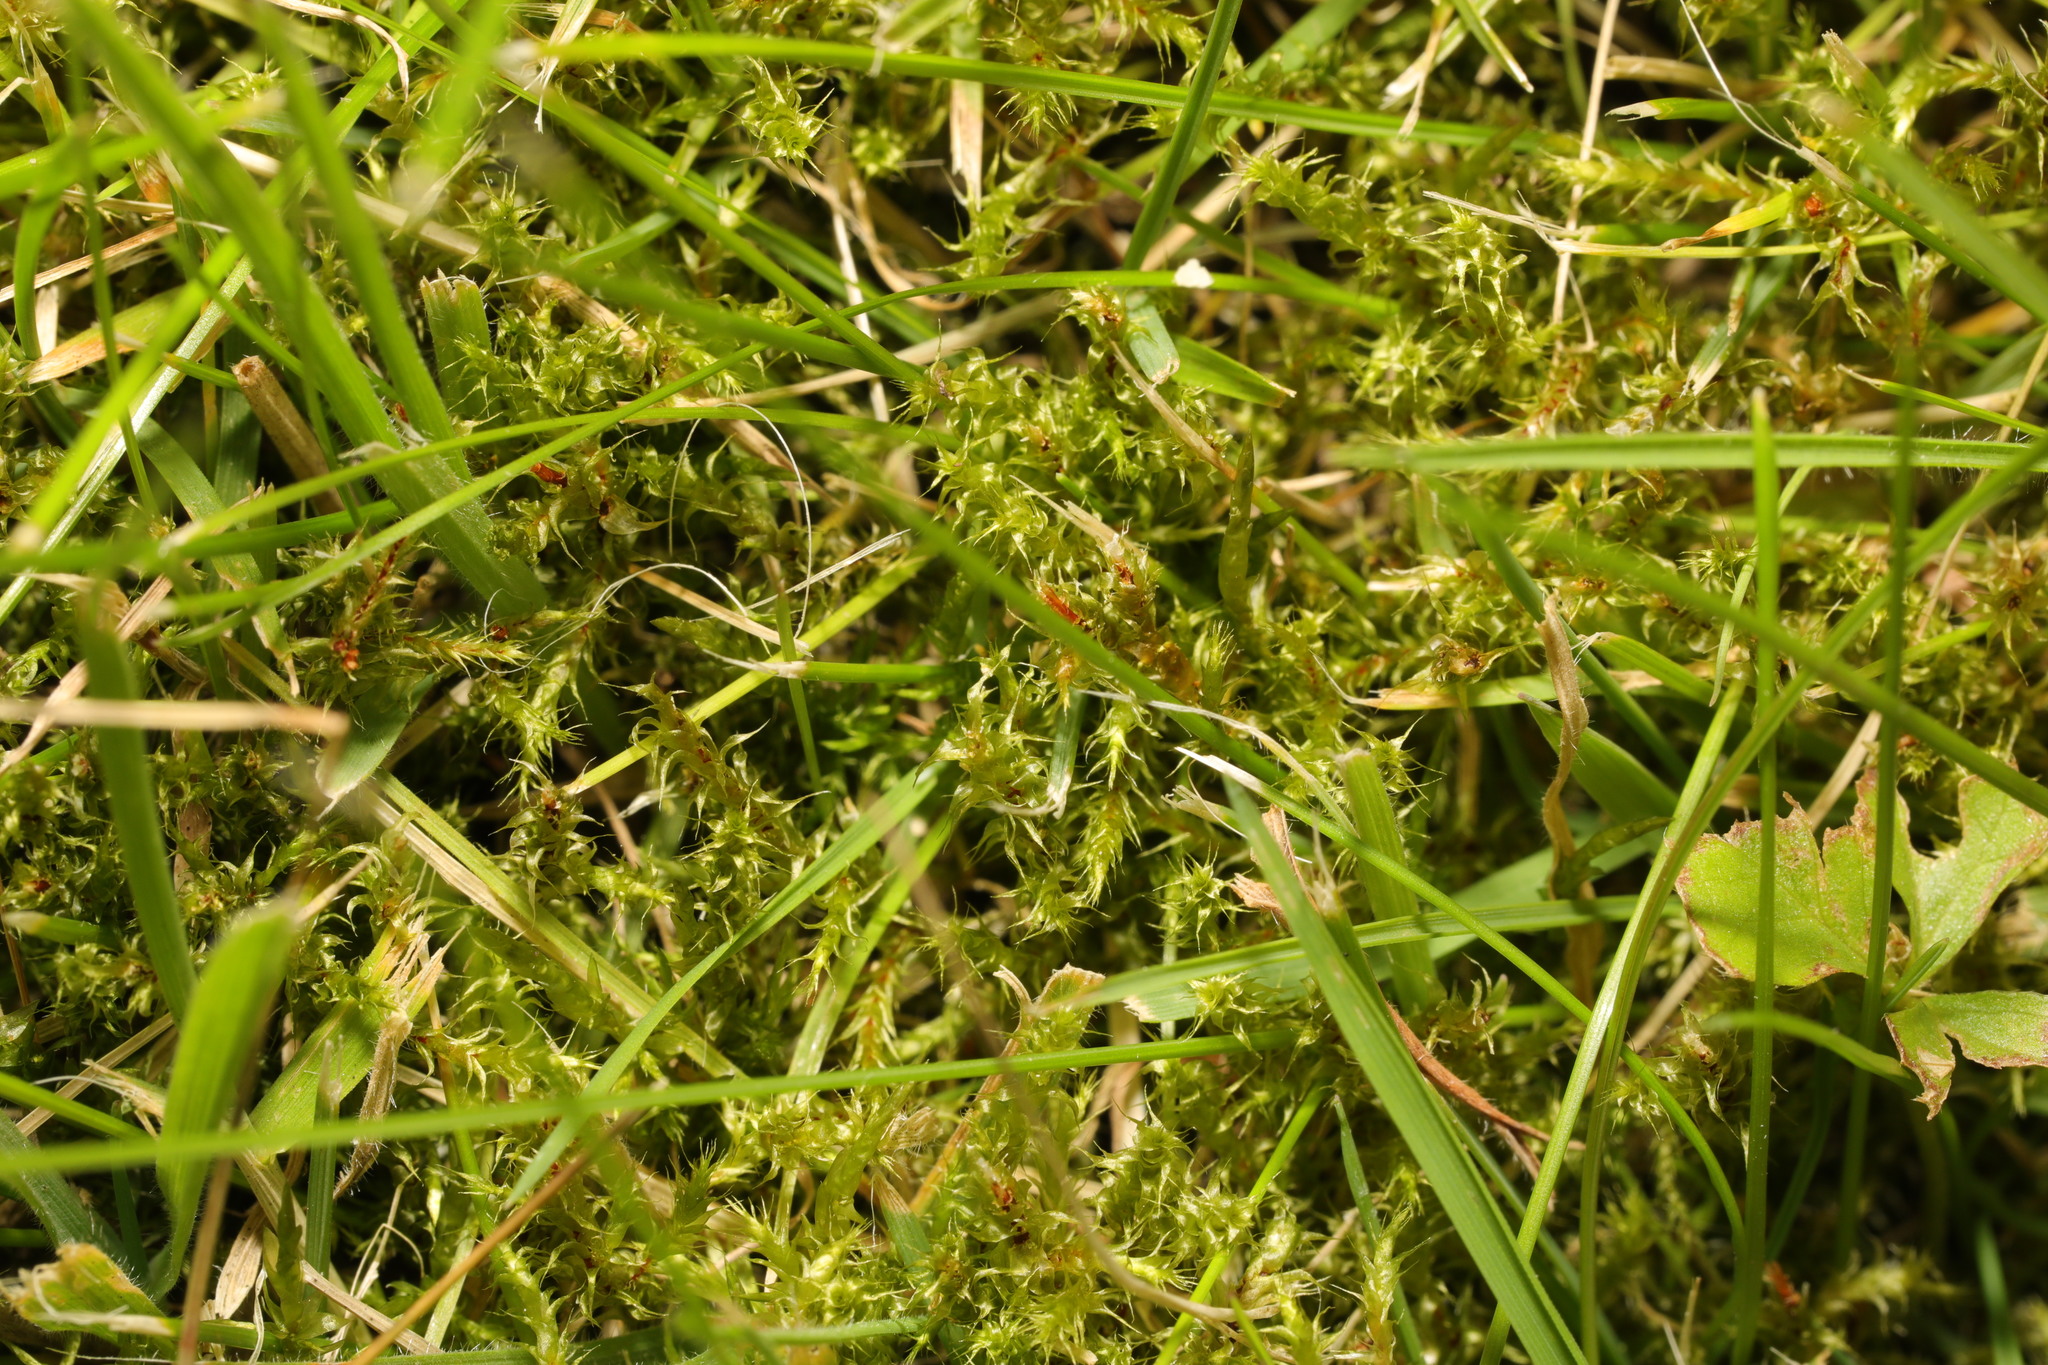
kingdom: Plantae
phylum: Bryophyta
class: Bryopsida
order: Hypnales
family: Hylocomiaceae
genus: Rhytidiadelphus
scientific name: Rhytidiadelphus squarrosus
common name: Springy turf-moss
